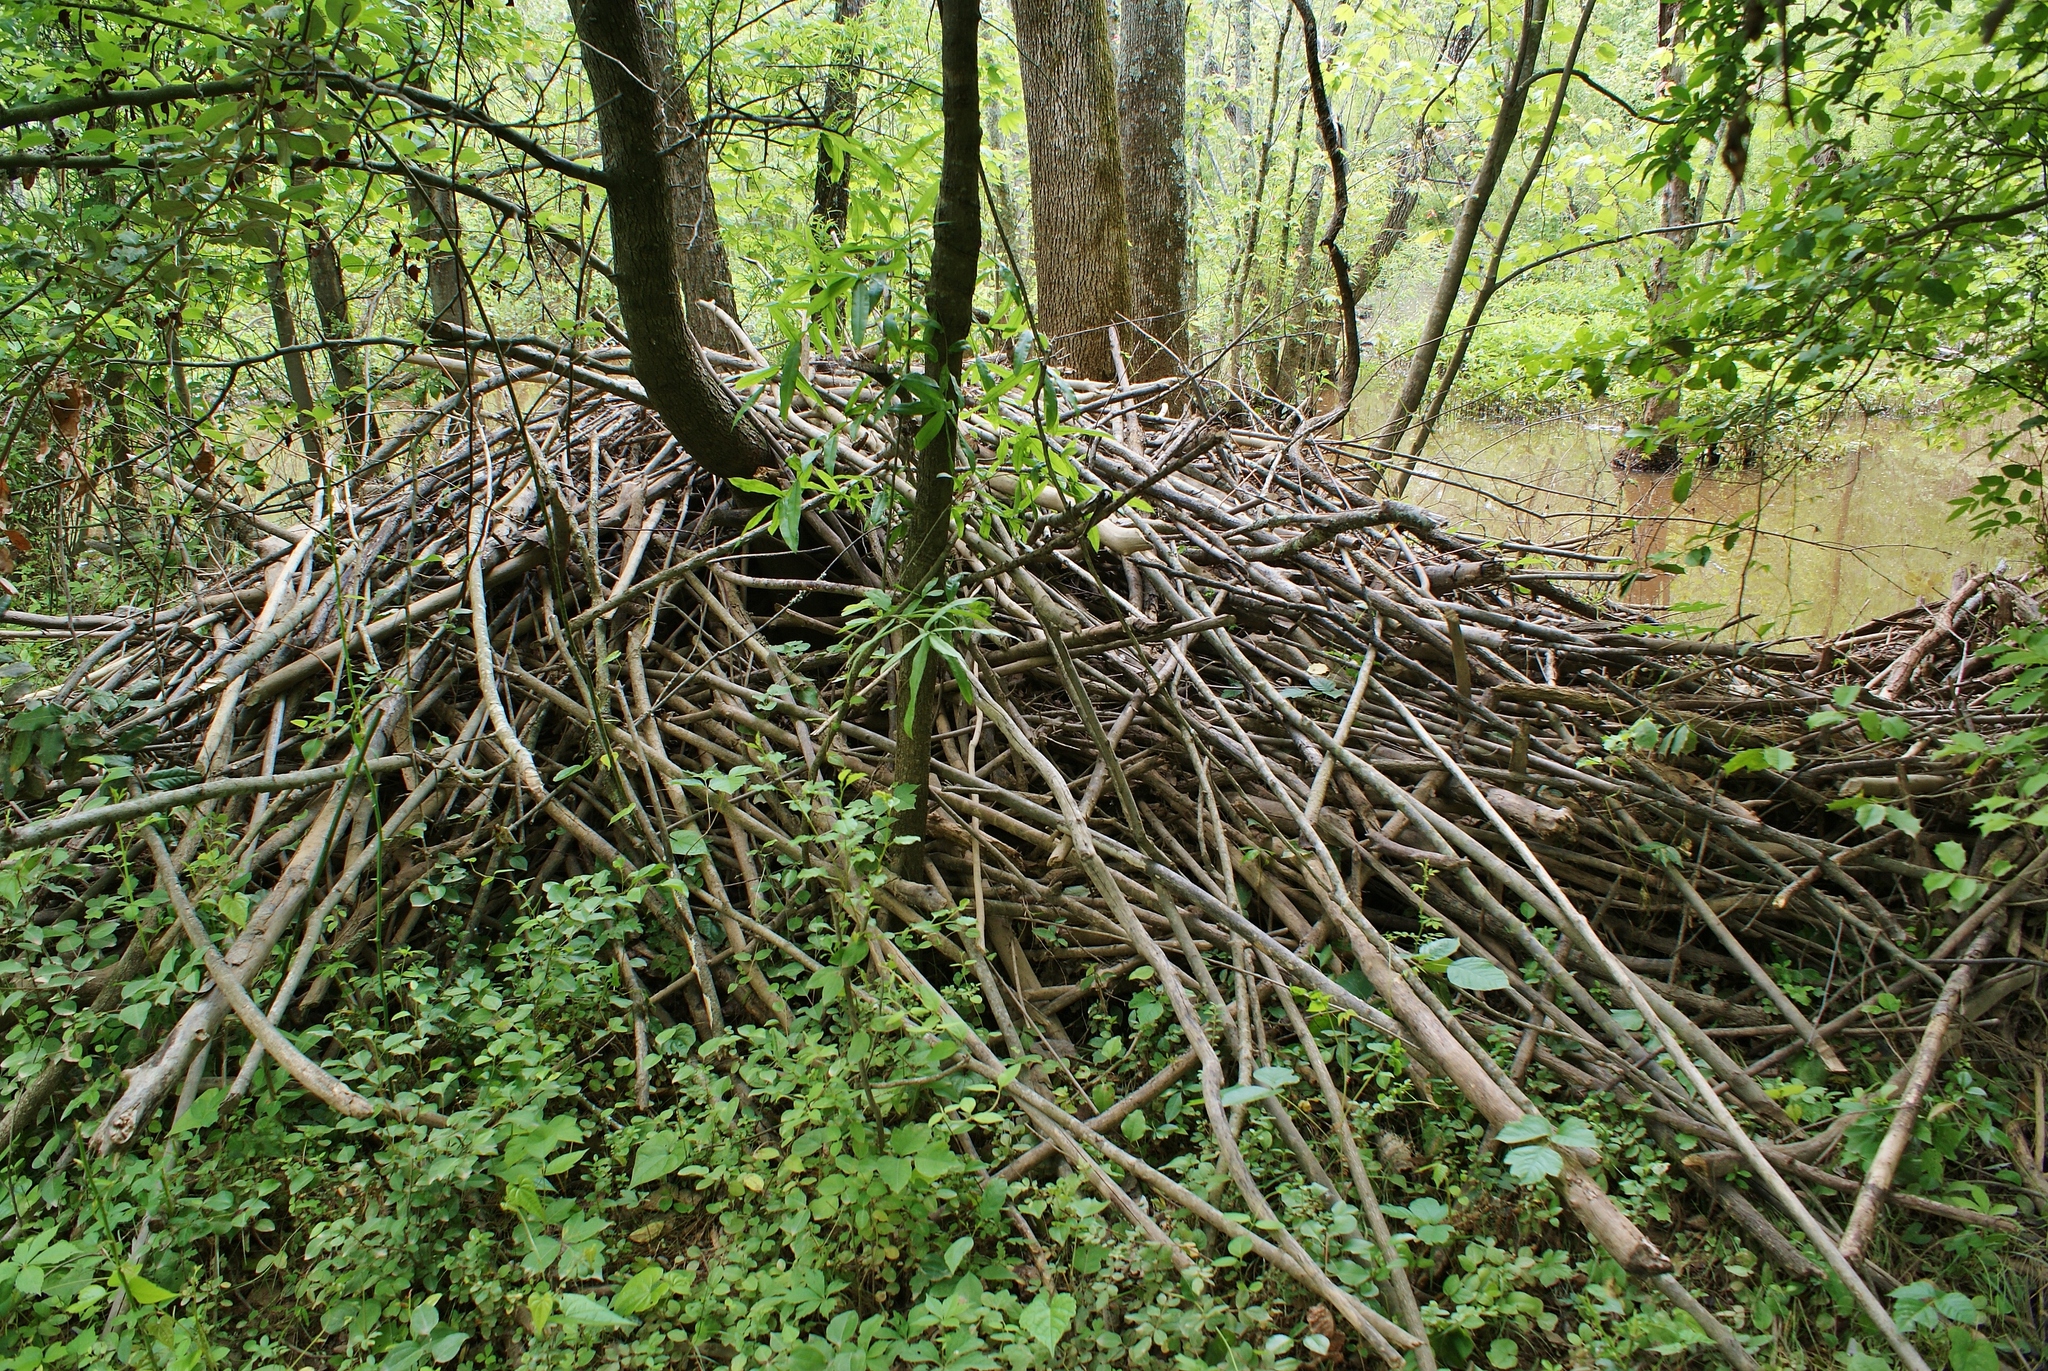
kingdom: Animalia
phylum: Chordata
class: Mammalia
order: Rodentia
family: Castoridae
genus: Castor
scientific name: Castor canadensis
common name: American beaver
